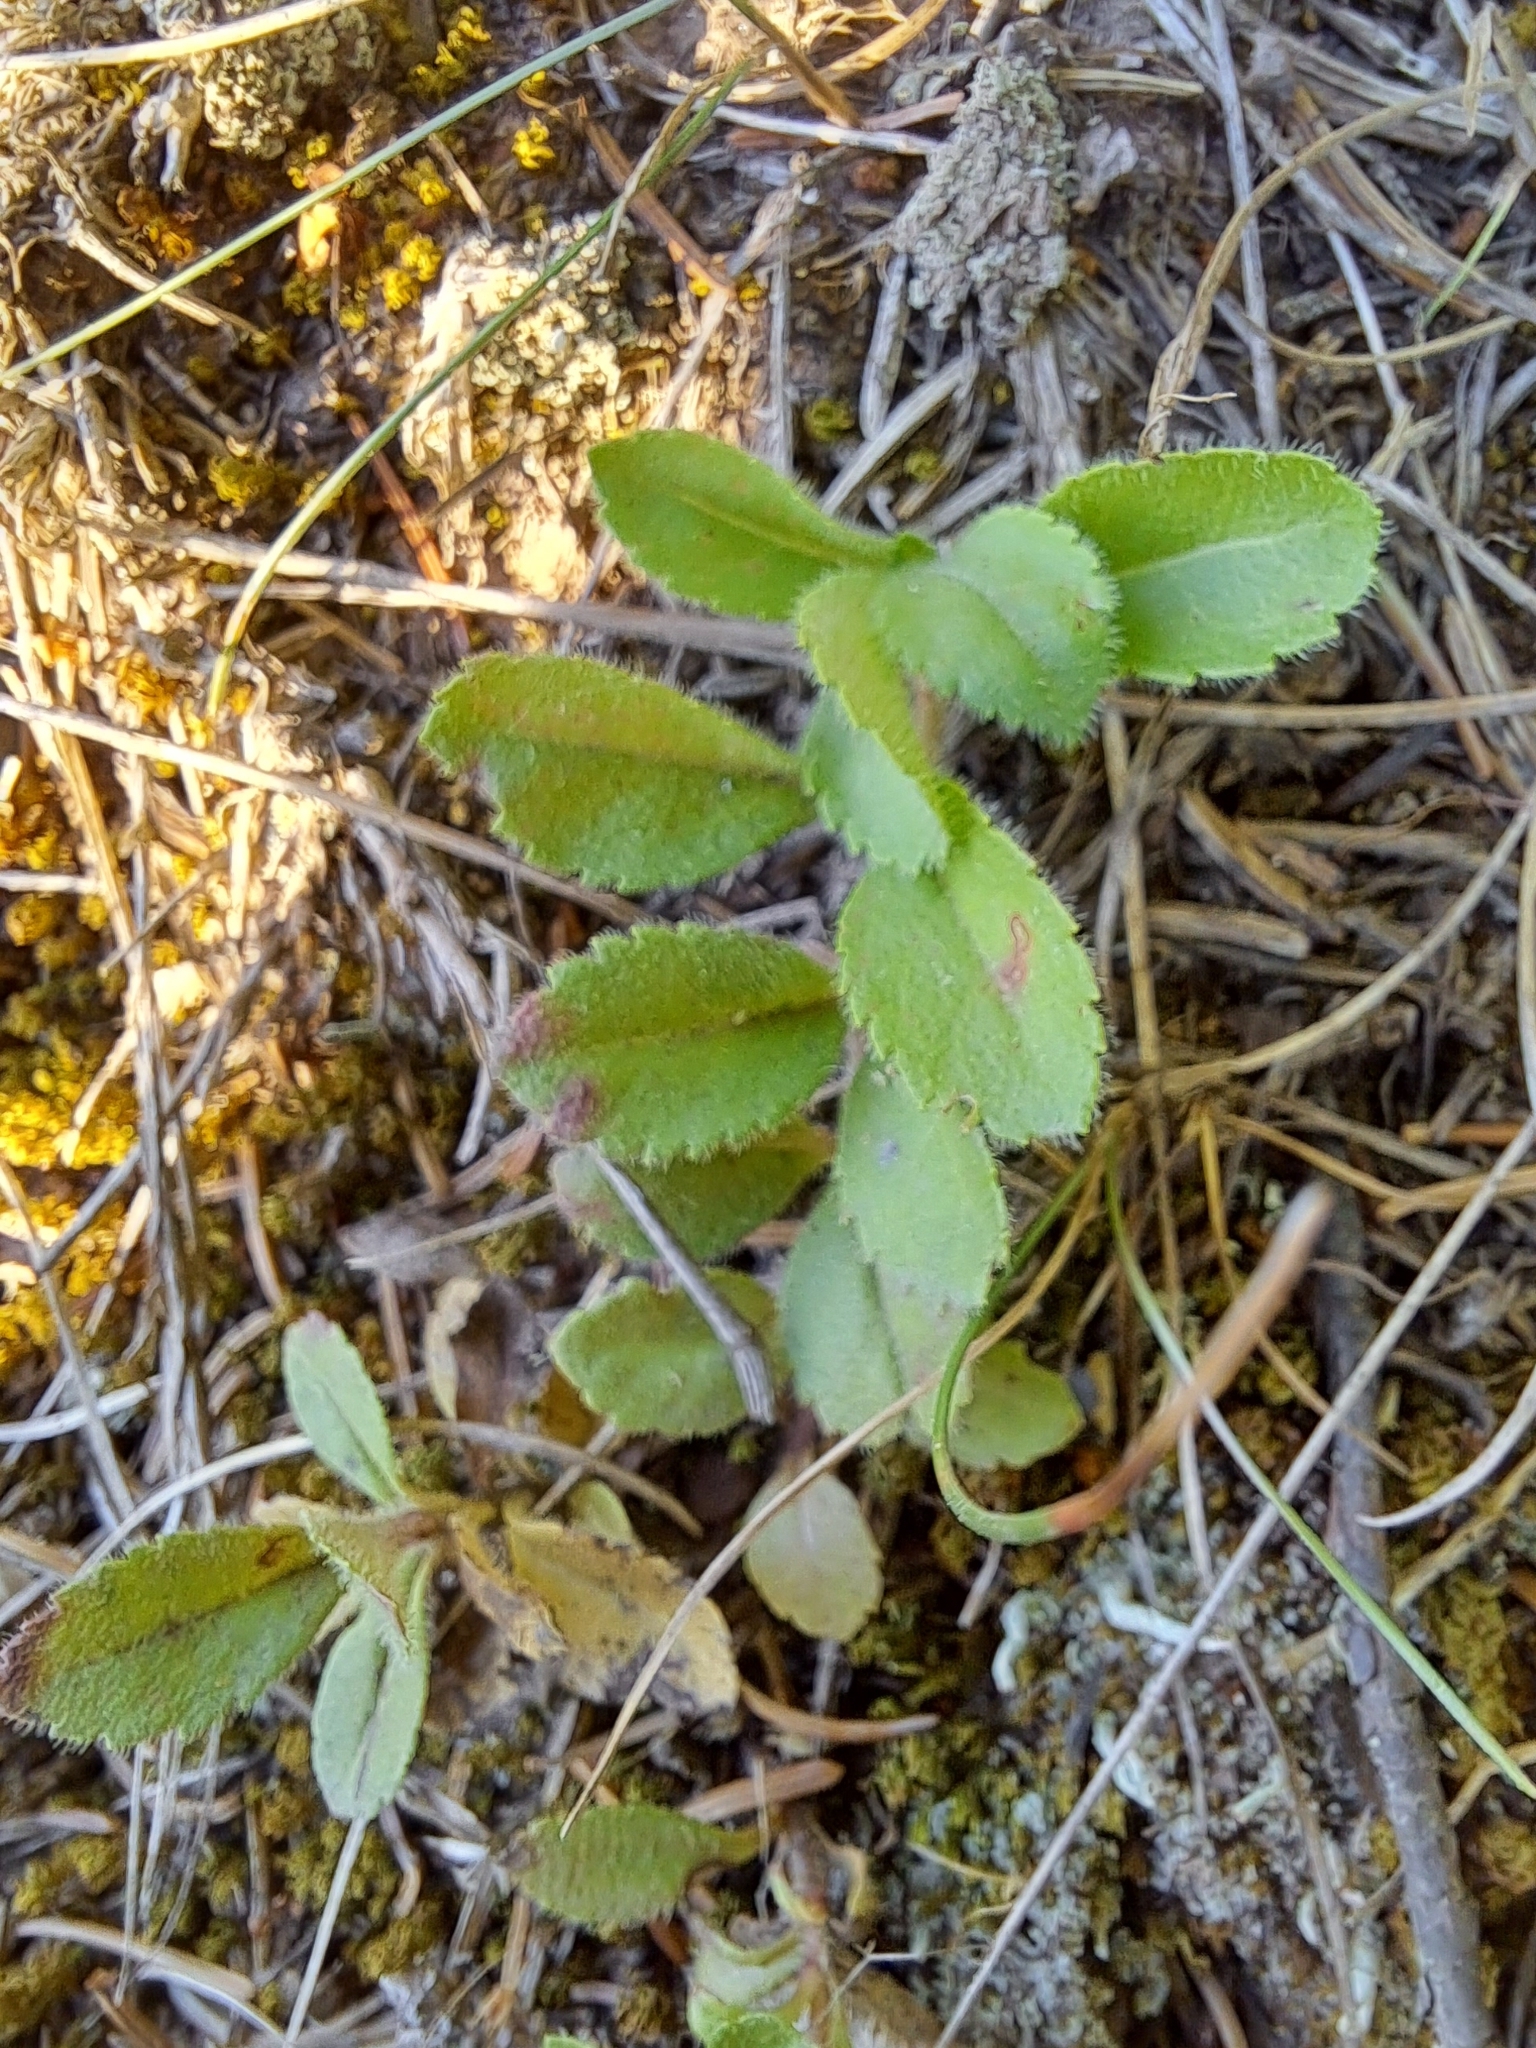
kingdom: Plantae
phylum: Tracheophyta
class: Magnoliopsida
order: Lamiales
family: Plantaginaceae
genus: Veronica
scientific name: Veronica officinalis
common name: Common speedwell
